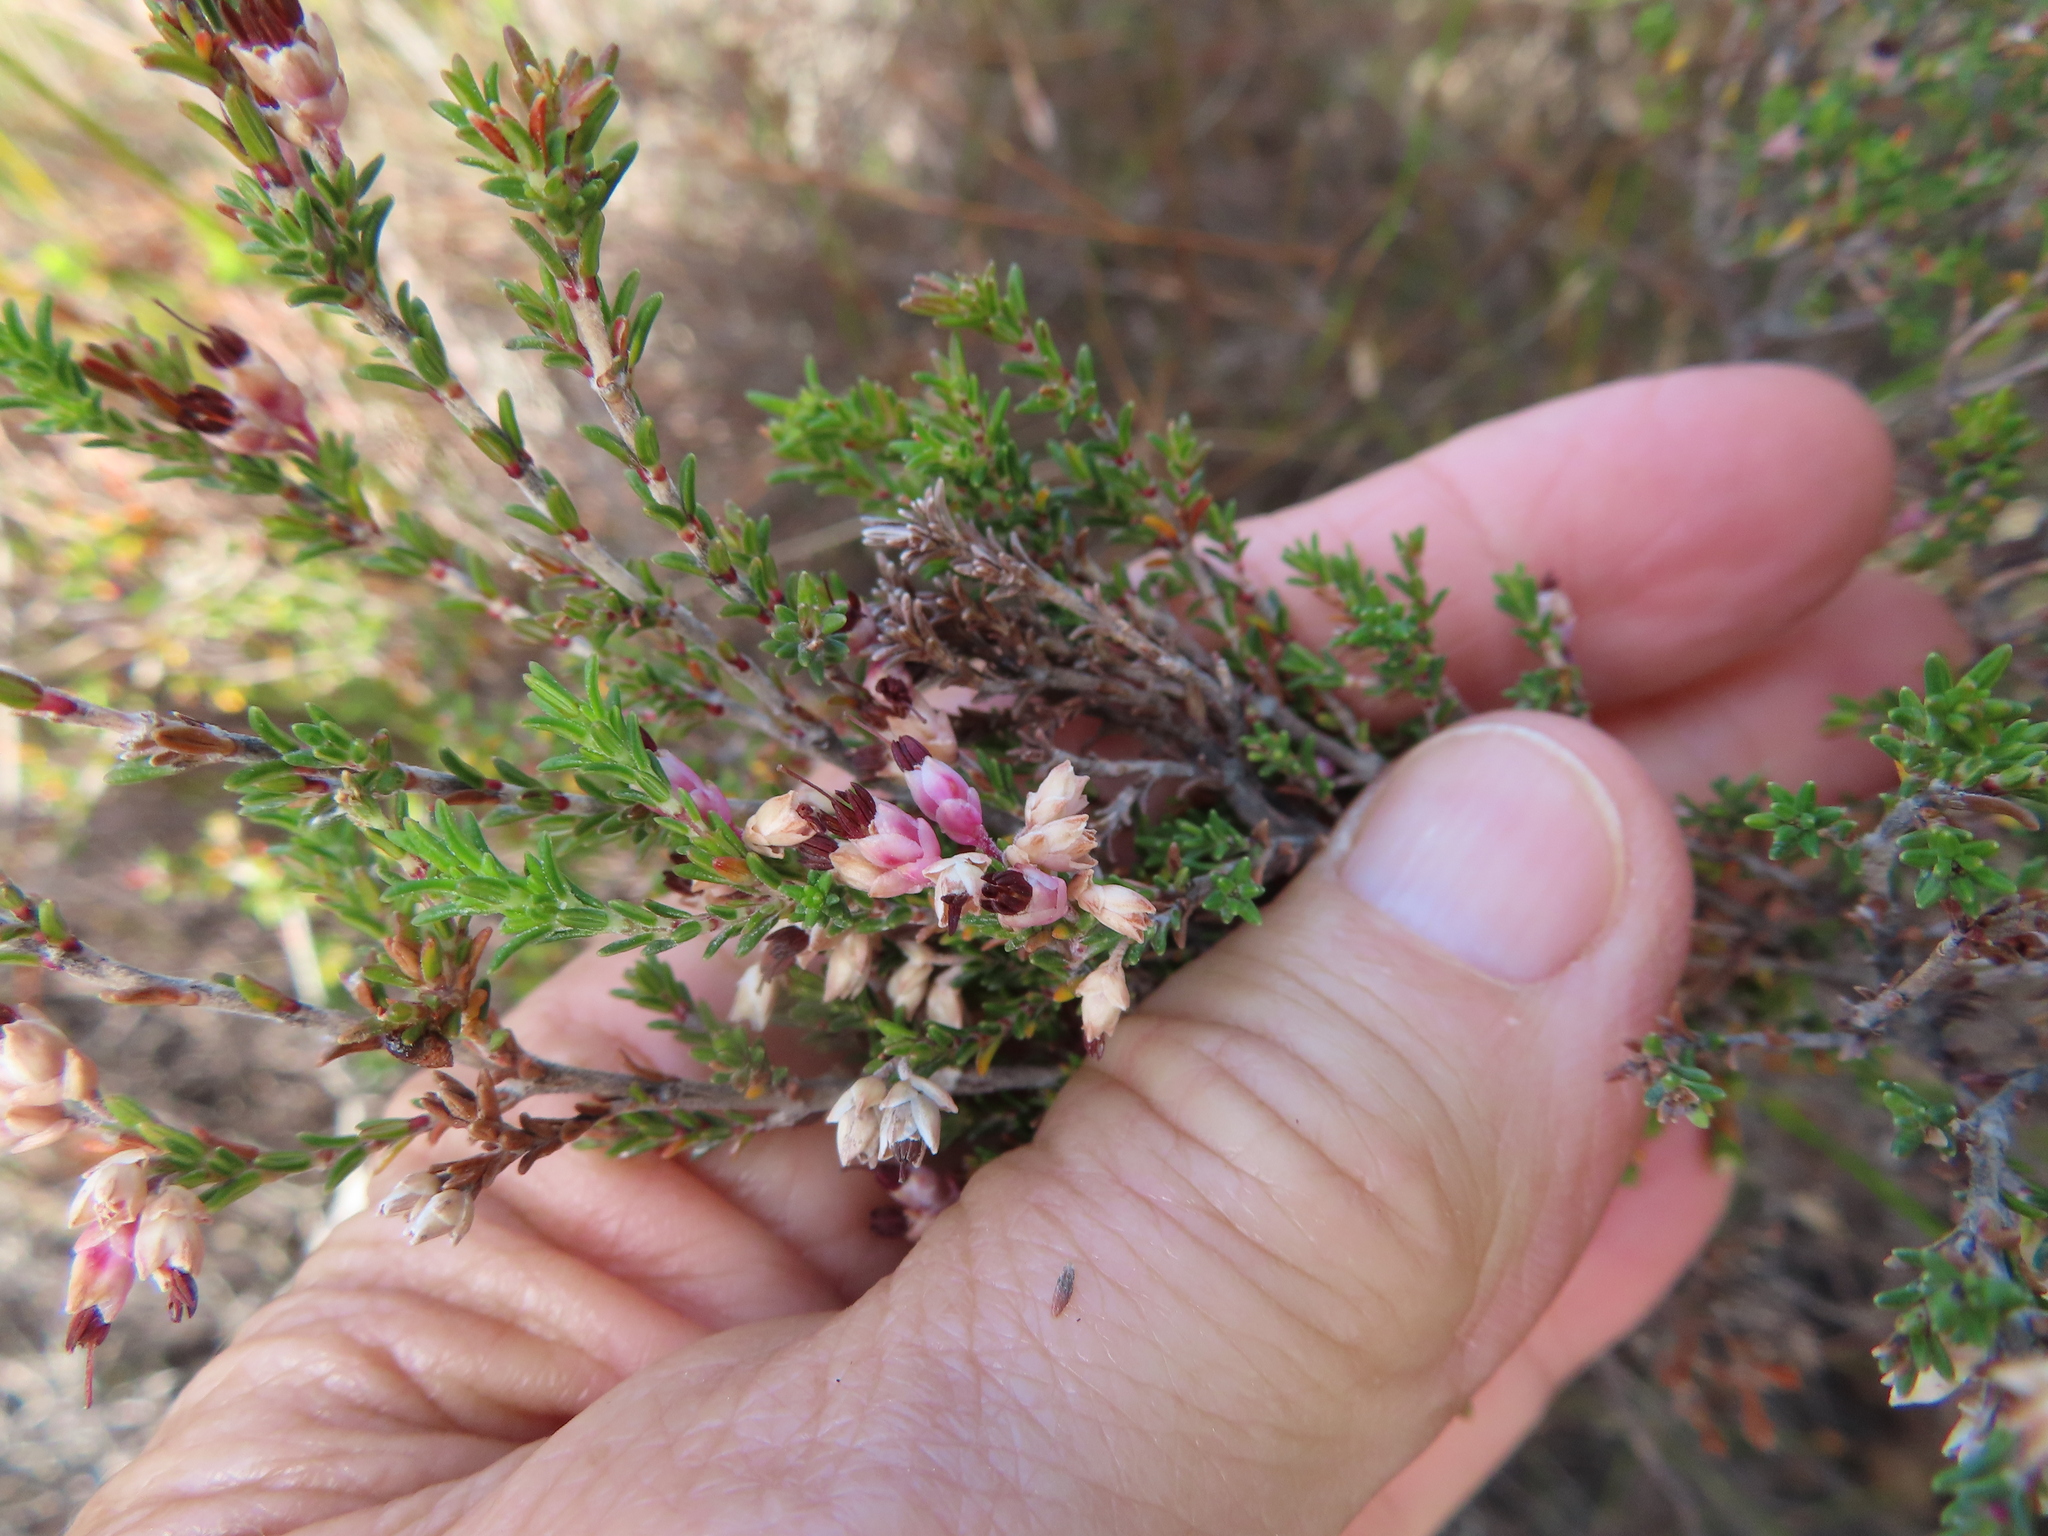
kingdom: Plantae
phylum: Tracheophyta
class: Magnoliopsida
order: Ericales
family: Ericaceae
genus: Erica
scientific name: Erica placentiflora
